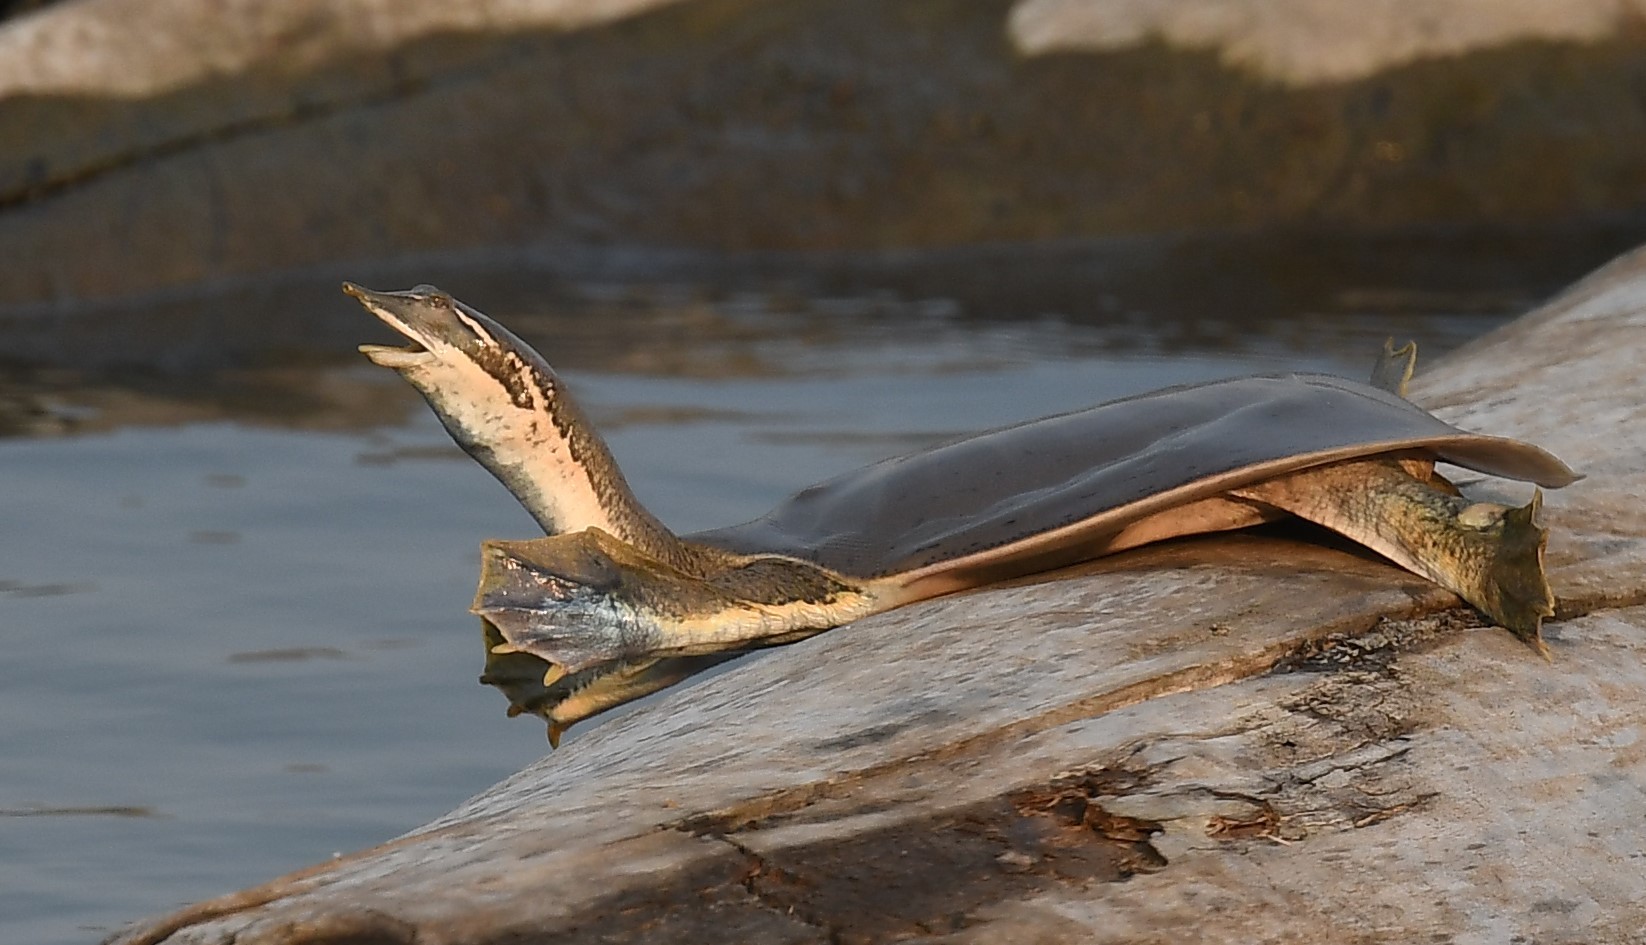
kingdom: Animalia
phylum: Chordata
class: Testudines
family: Trionychidae
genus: Apalone
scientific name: Apalone mutica
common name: Smooth softshell turtle
